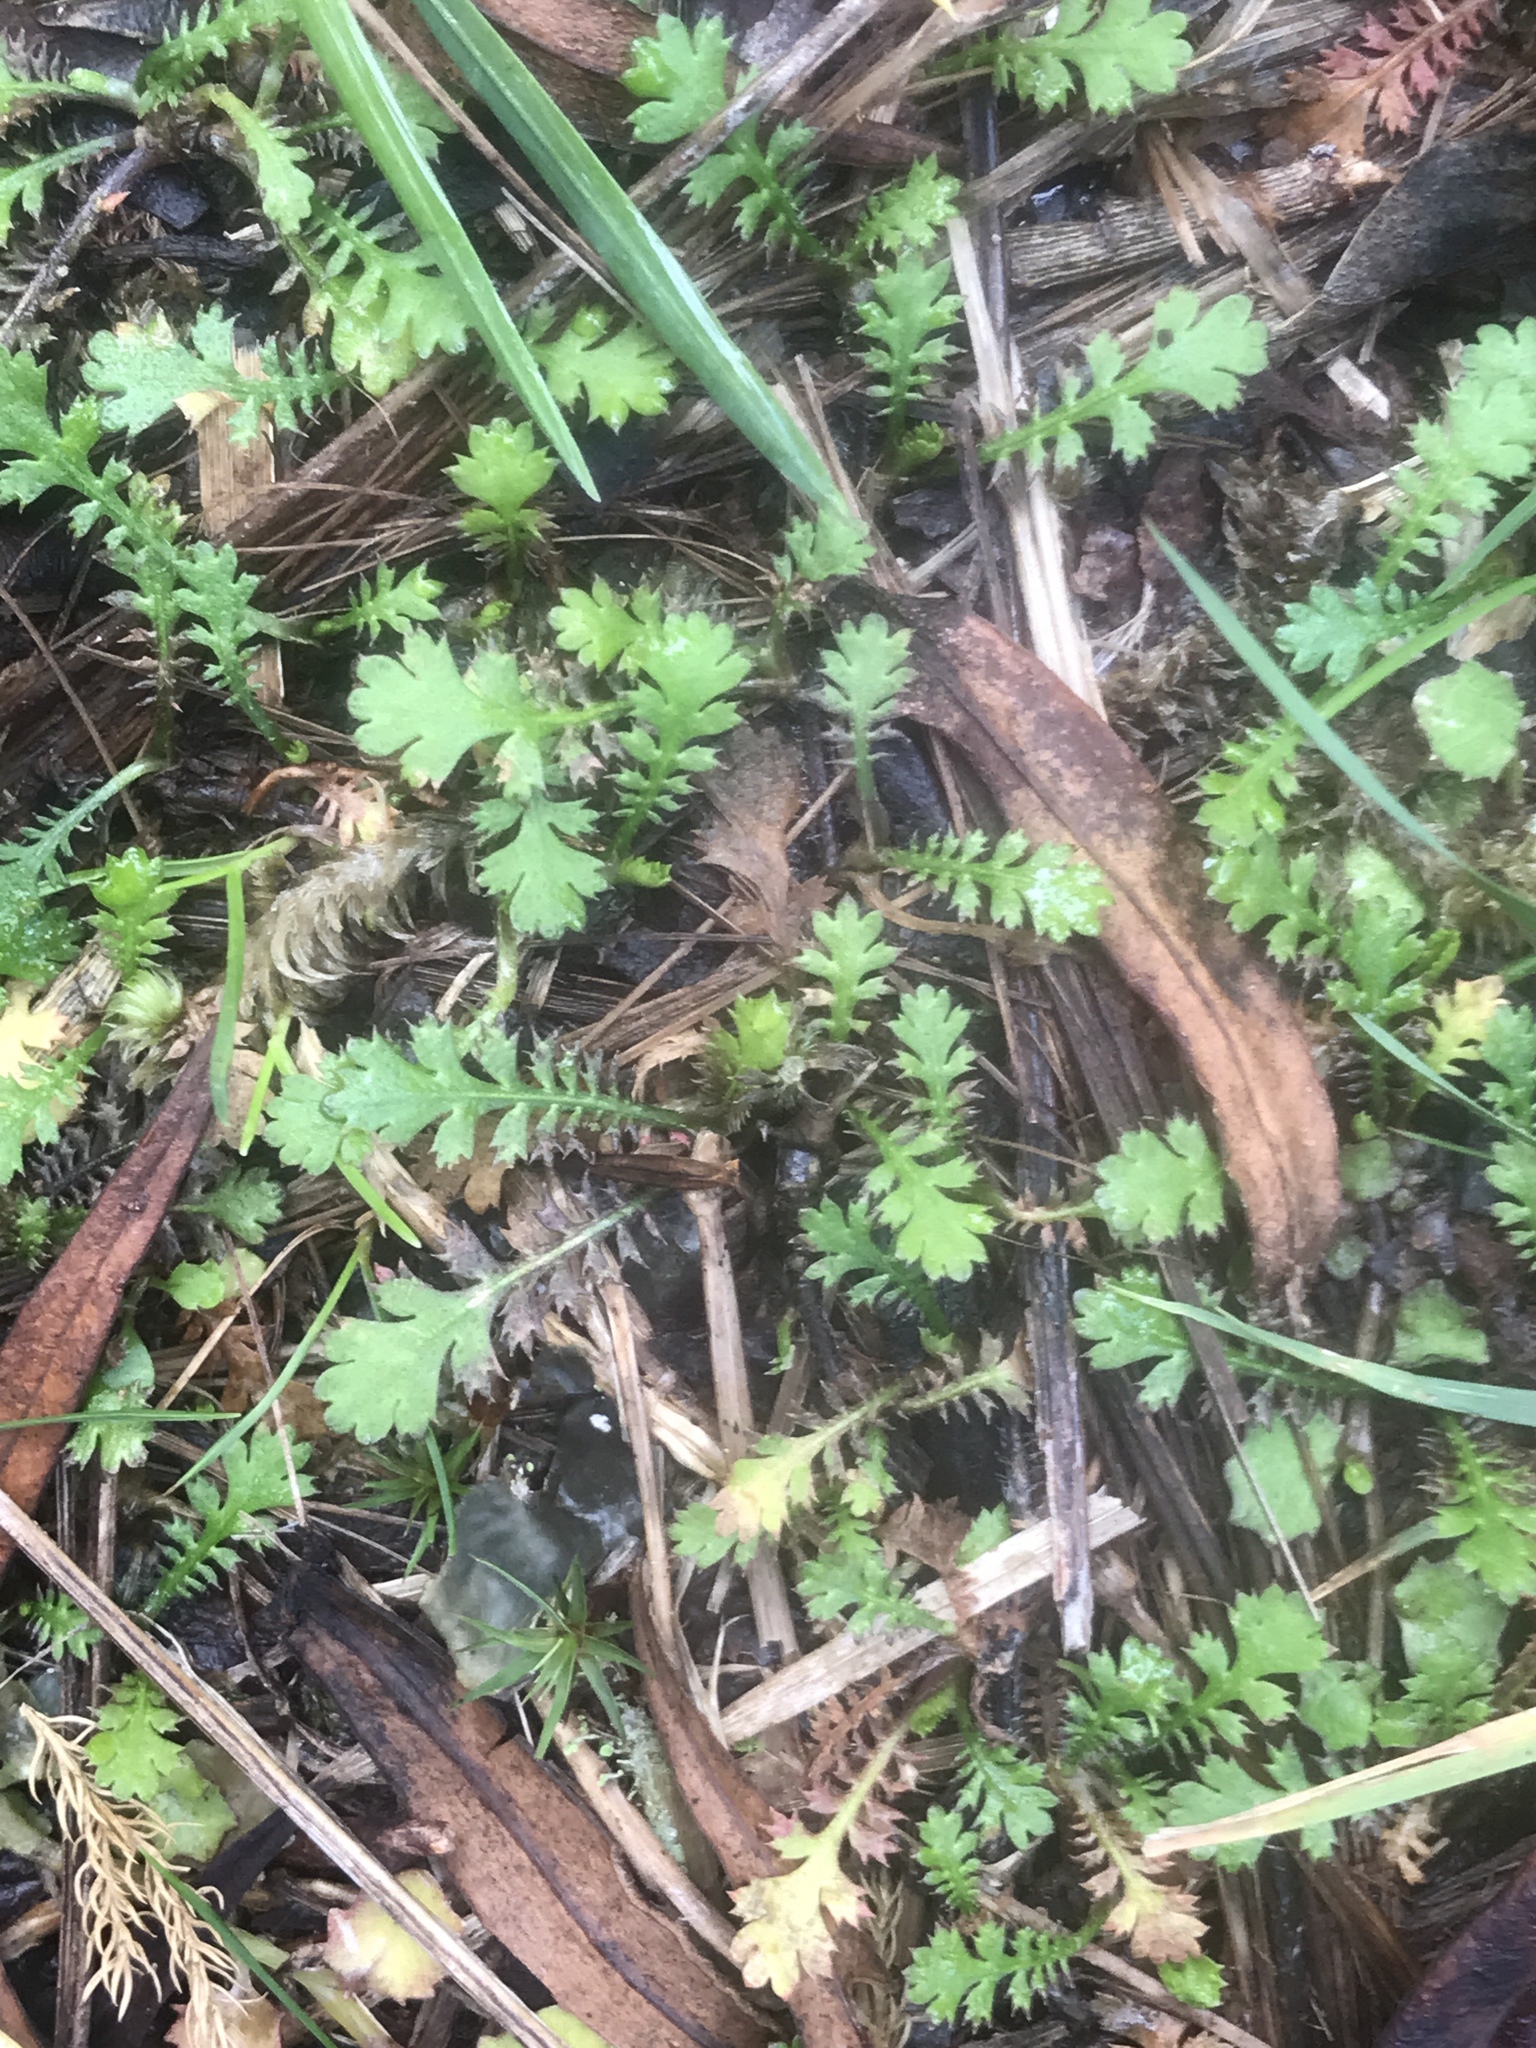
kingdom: Plantae
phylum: Tracheophyta
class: Magnoliopsida
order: Asterales
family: Asteraceae
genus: Leptinella
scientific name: Leptinella squalida
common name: New zealand brass-buttons
